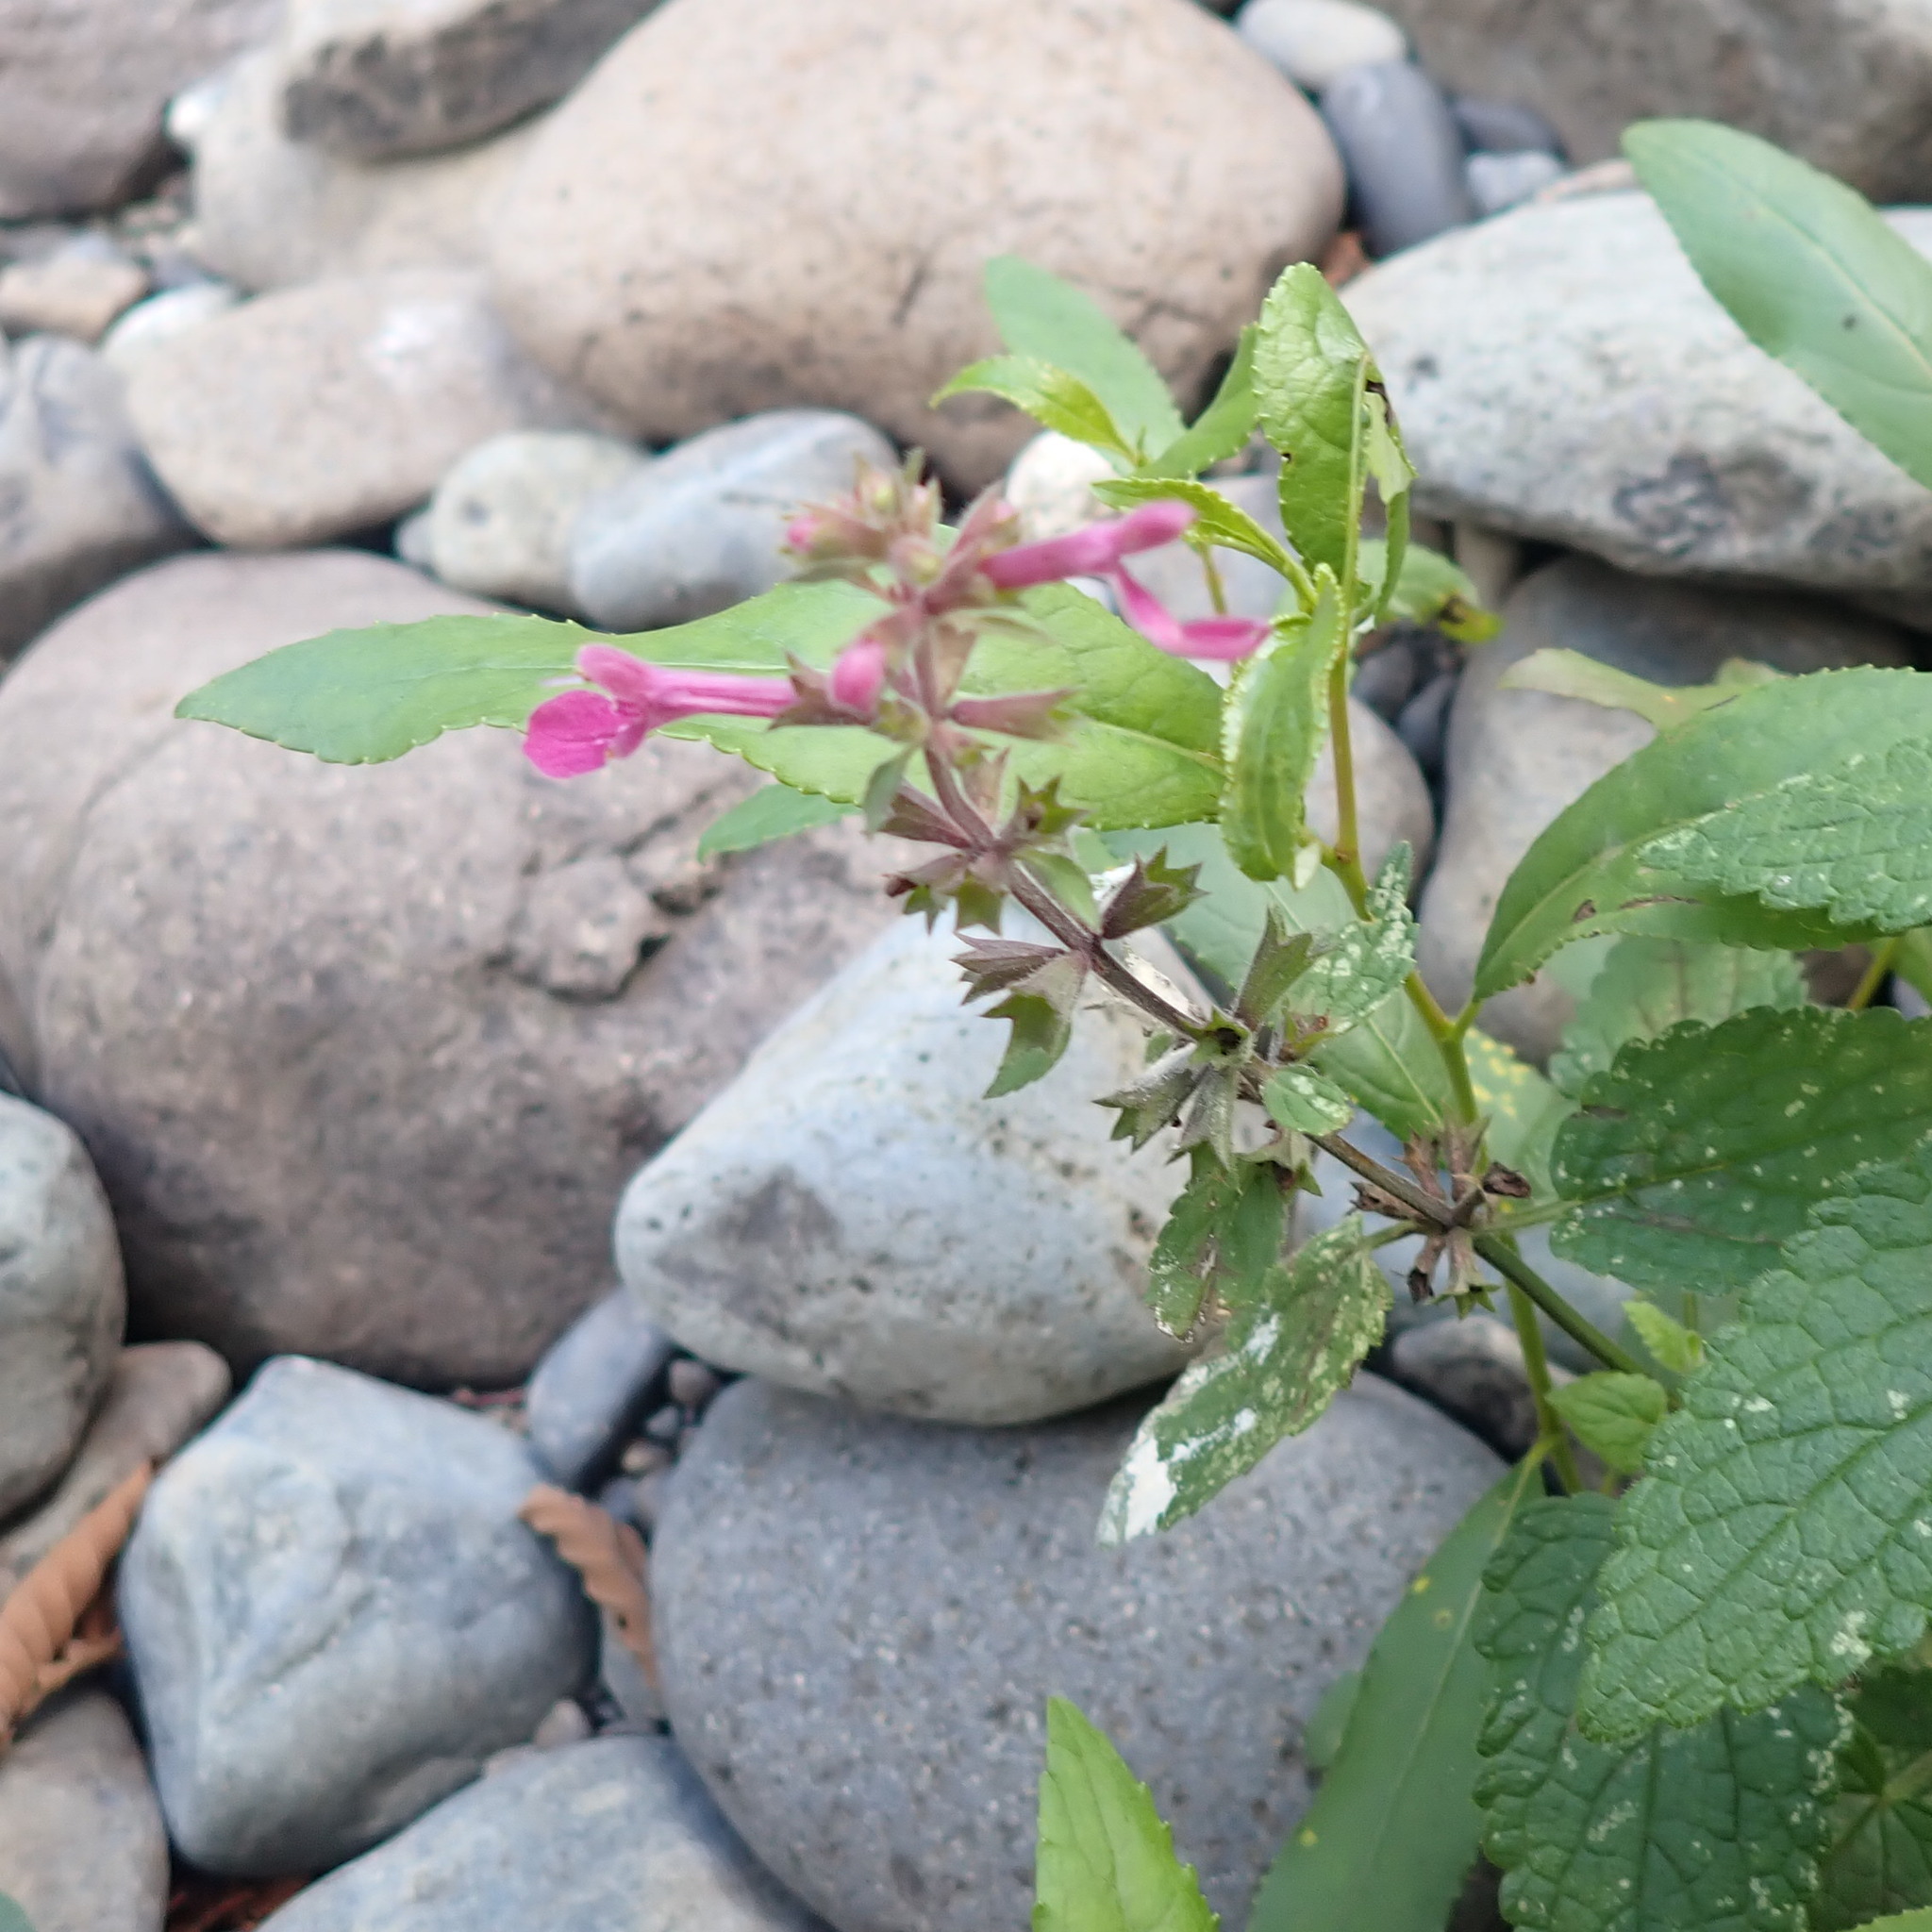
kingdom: Plantae
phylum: Tracheophyta
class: Magnoliopsida
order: Lamiales
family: Lamiaceae
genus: Stachys
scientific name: Stachys chamissonis
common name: Coastal hedge-nettle
